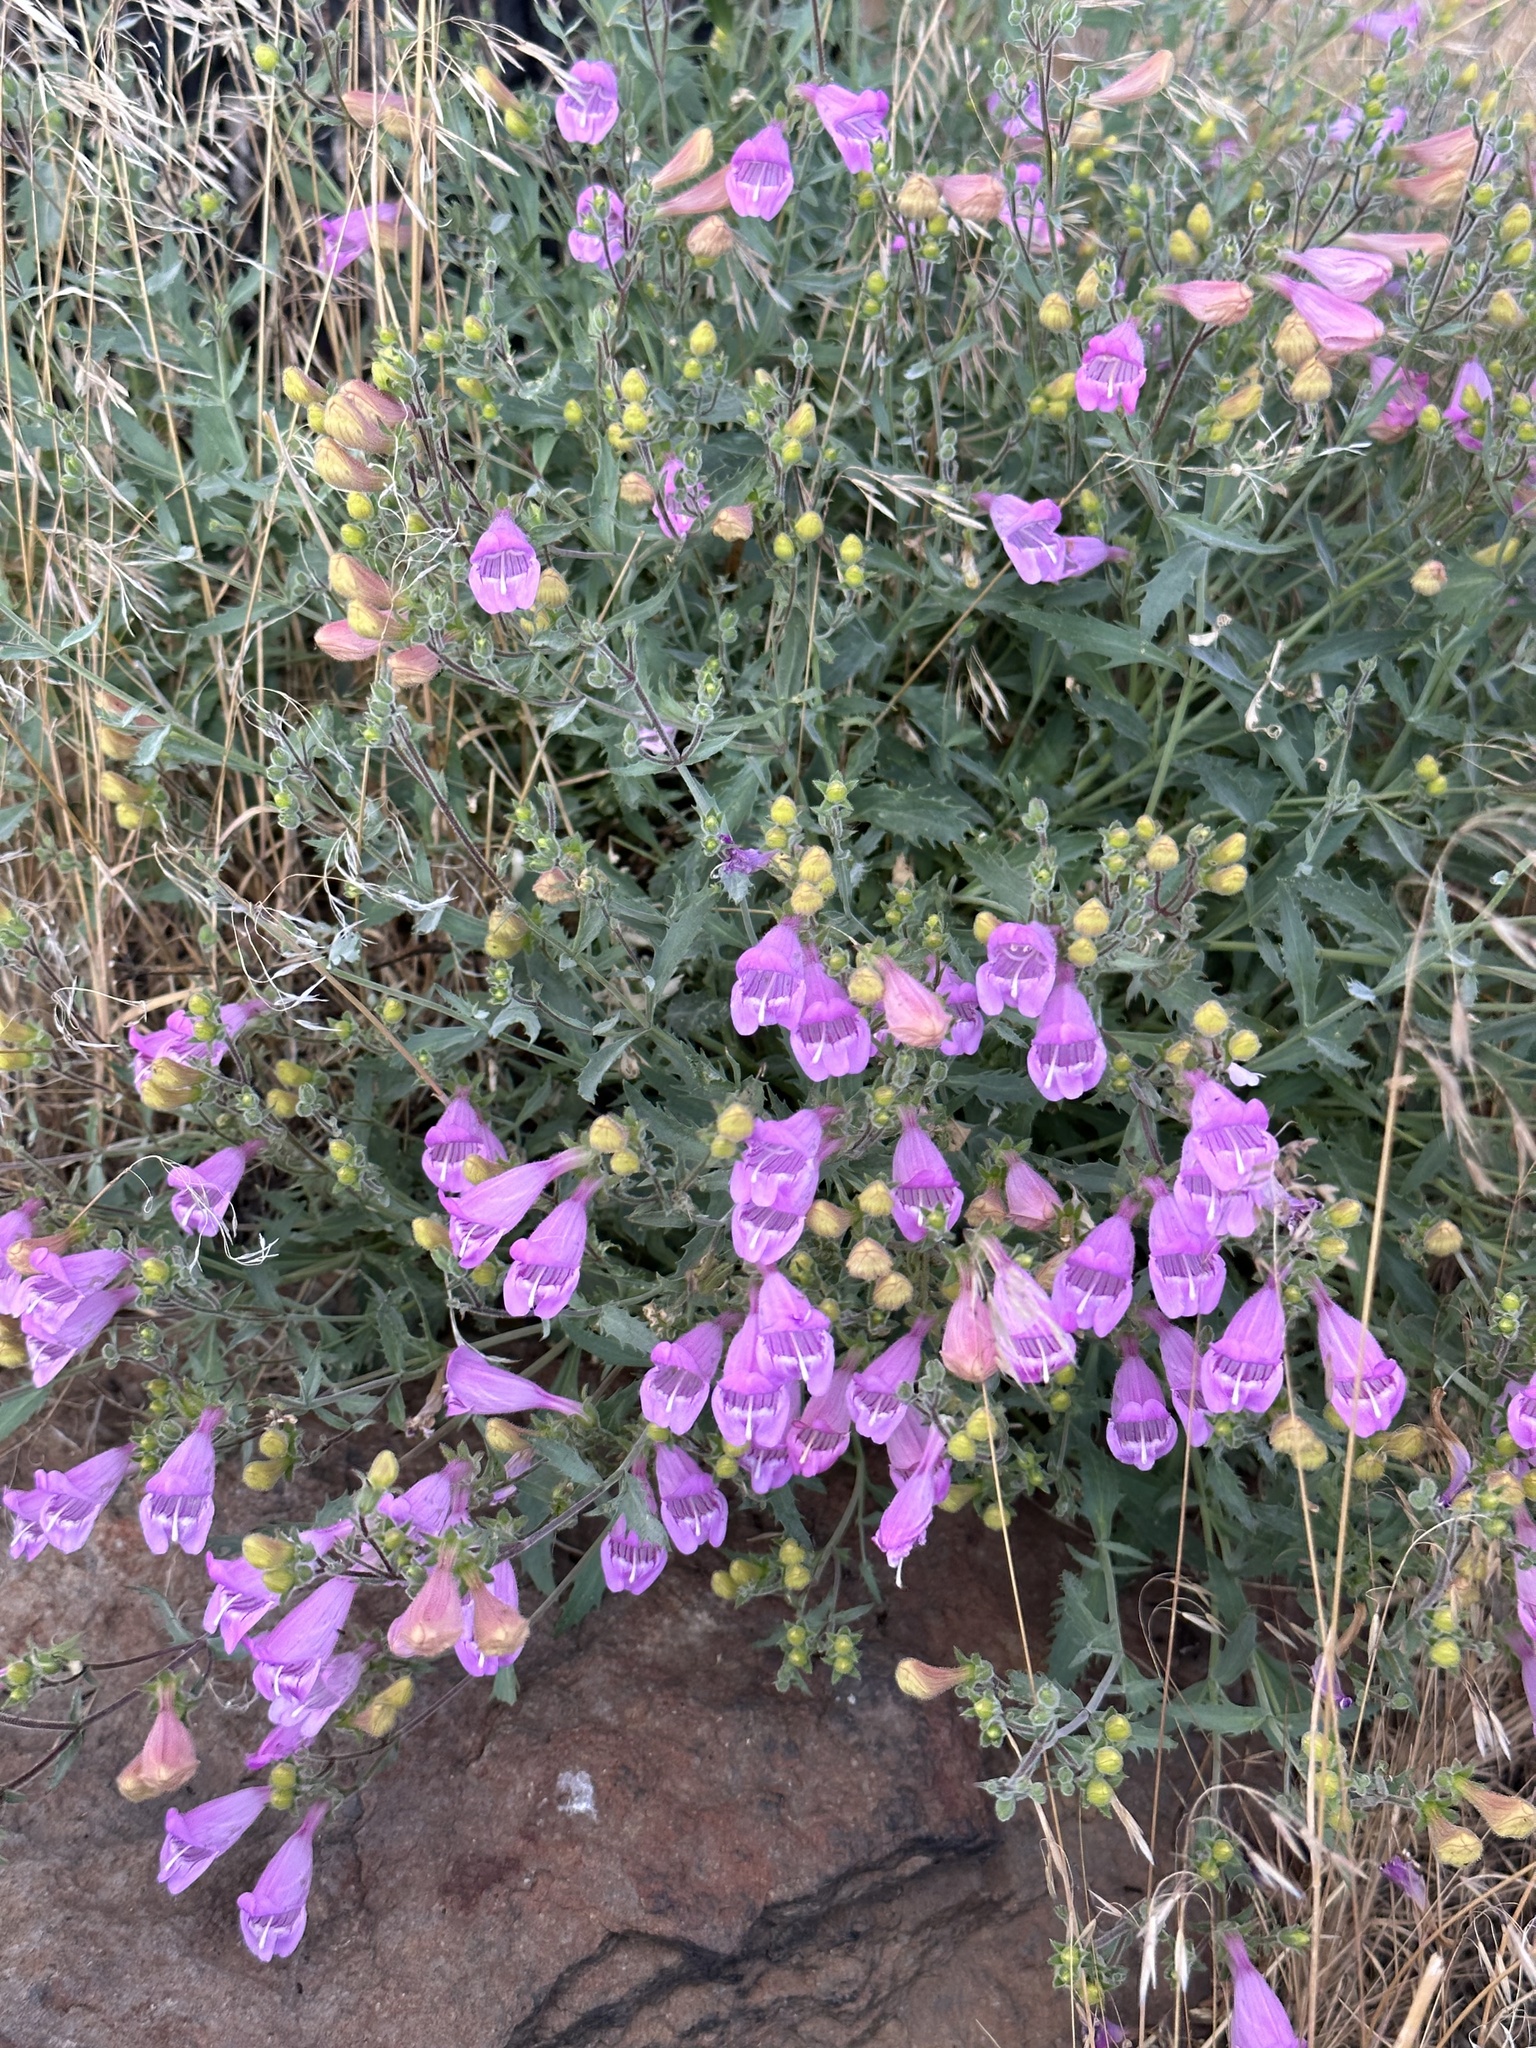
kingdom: Plantae
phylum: Tracheophyta
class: Magnoliopsida
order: Lamiales
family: Plantaginaceae
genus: Penstemon
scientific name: Penstemon richardsonii
